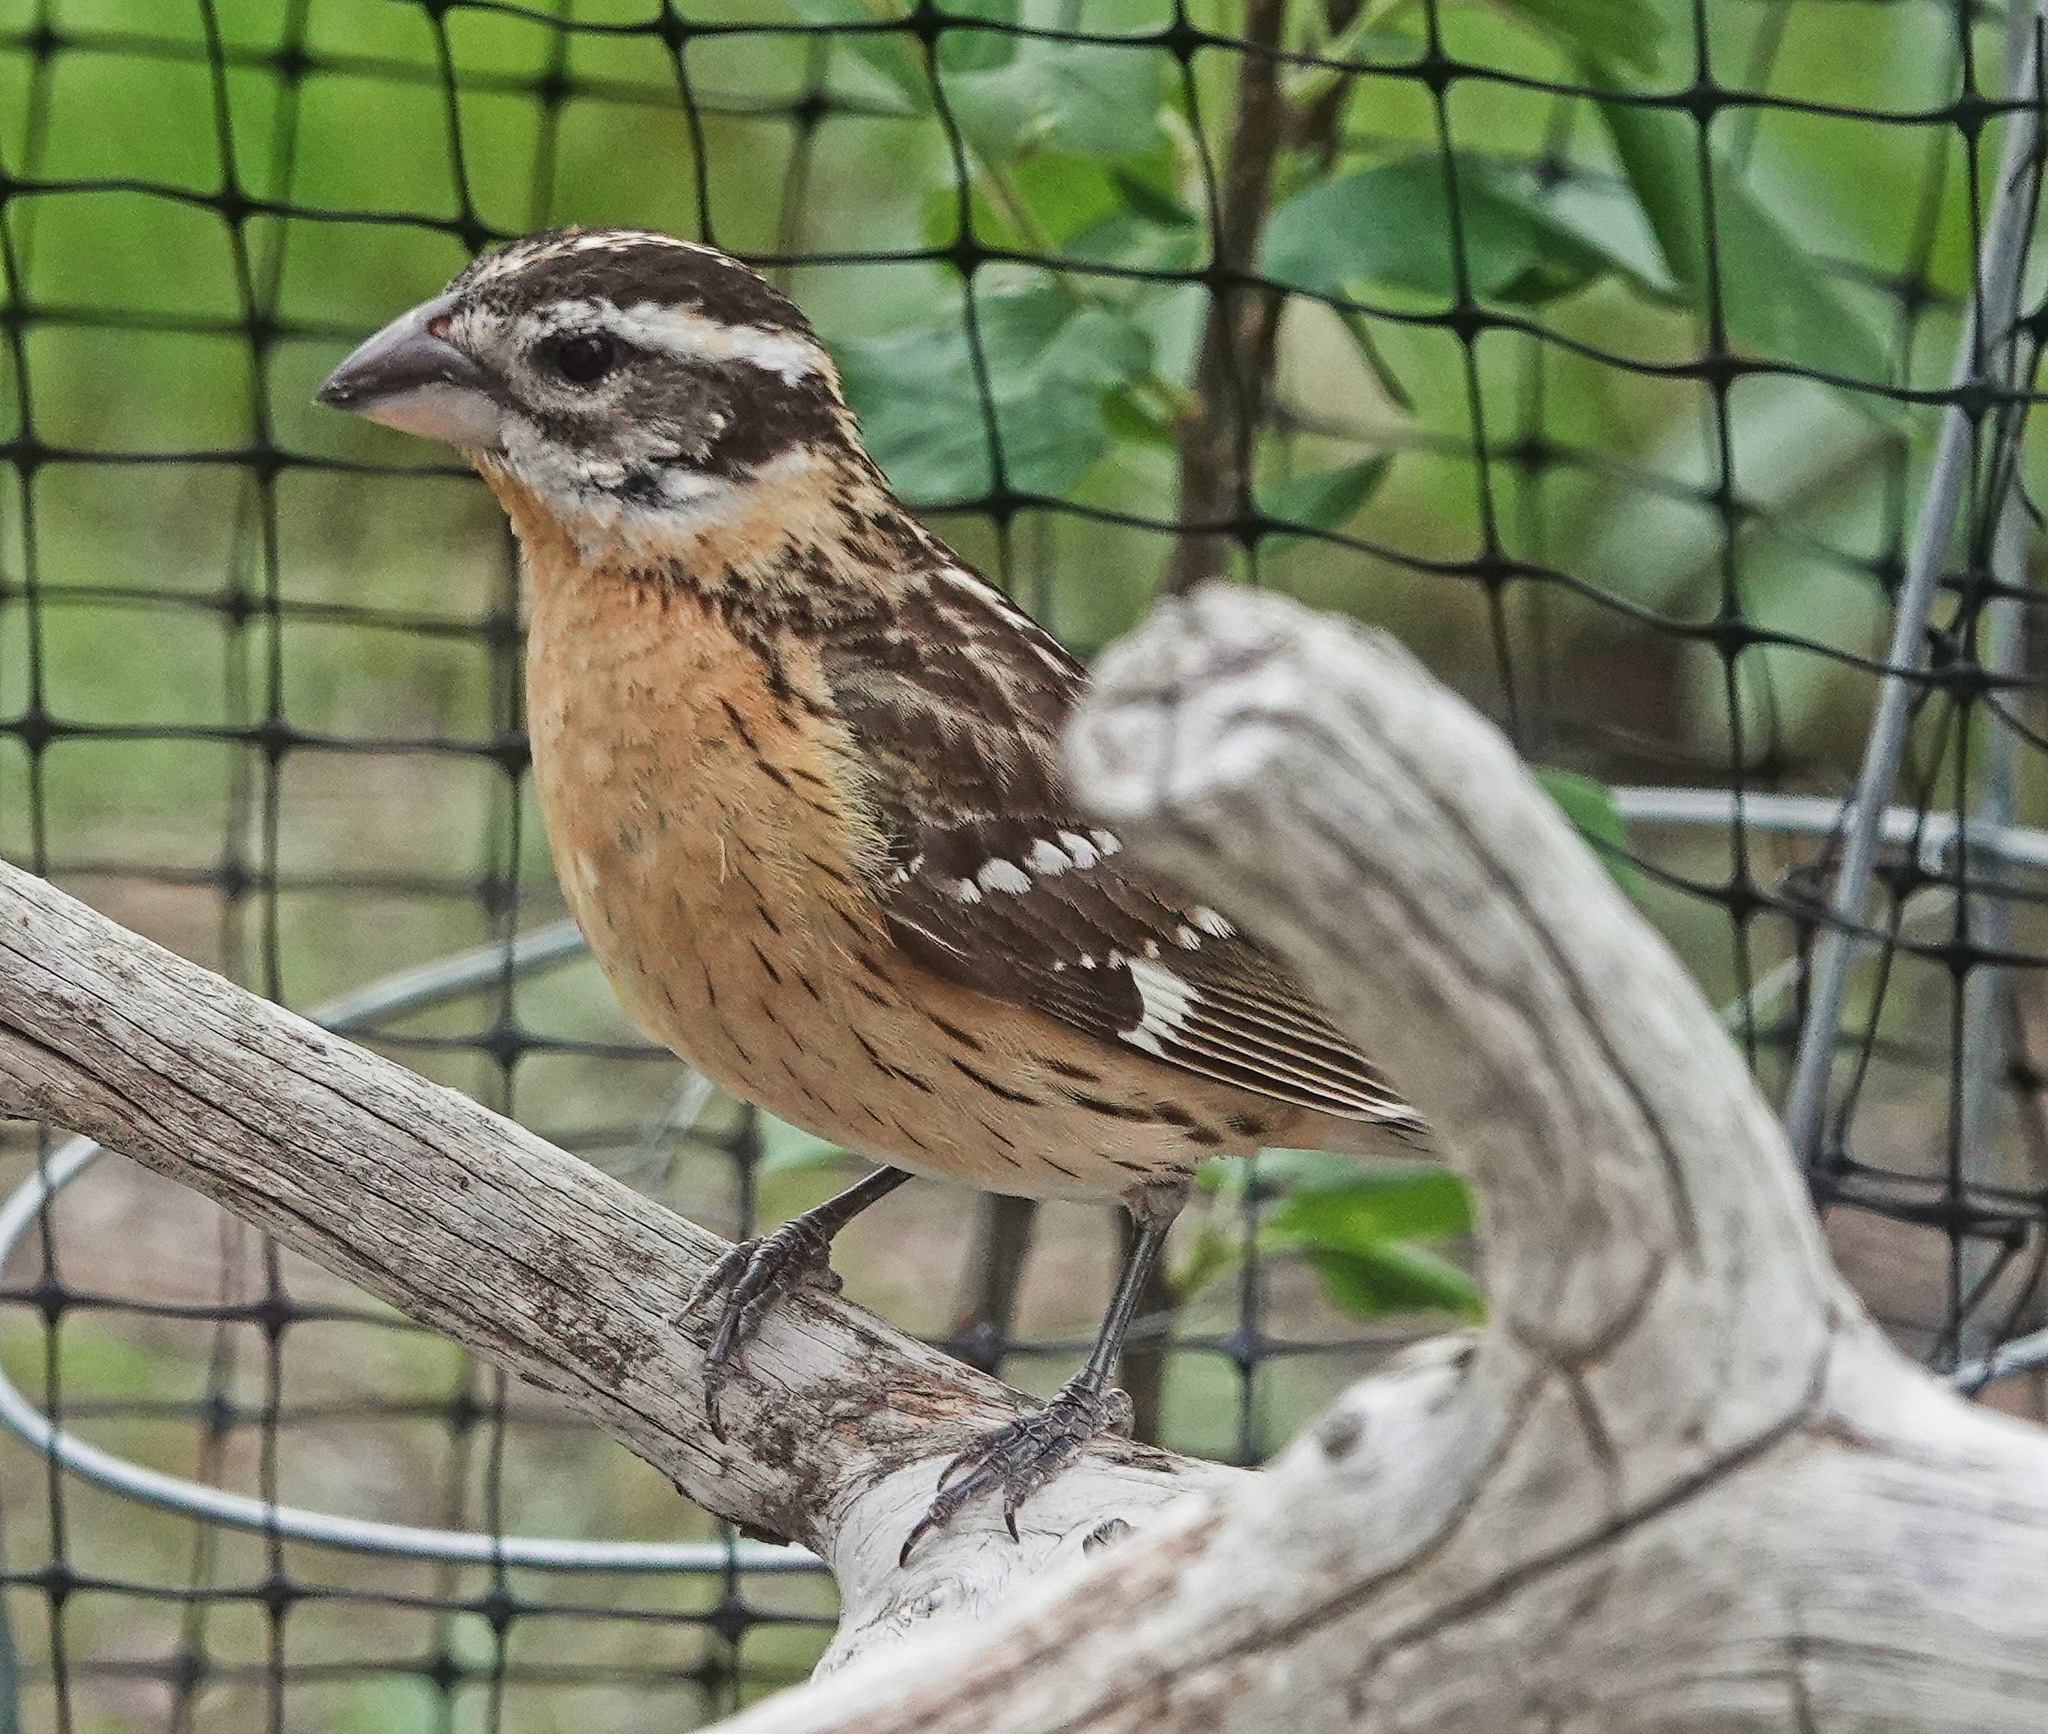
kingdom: Animalia
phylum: Chordata
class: Aves
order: Passeriformes
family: Cardinalidae
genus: Pheucticus
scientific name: Pheucticus melanocephalus
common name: Black-headed grosbeak
